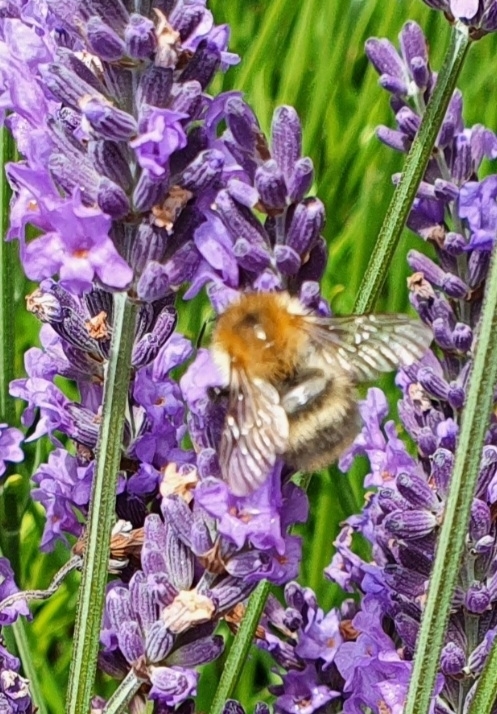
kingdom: Animalia
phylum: Arthropoda
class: Insecta
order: Hymenoptera
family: Apidae
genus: Bombus
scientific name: Bombus pascuorum
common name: Common carder bee
